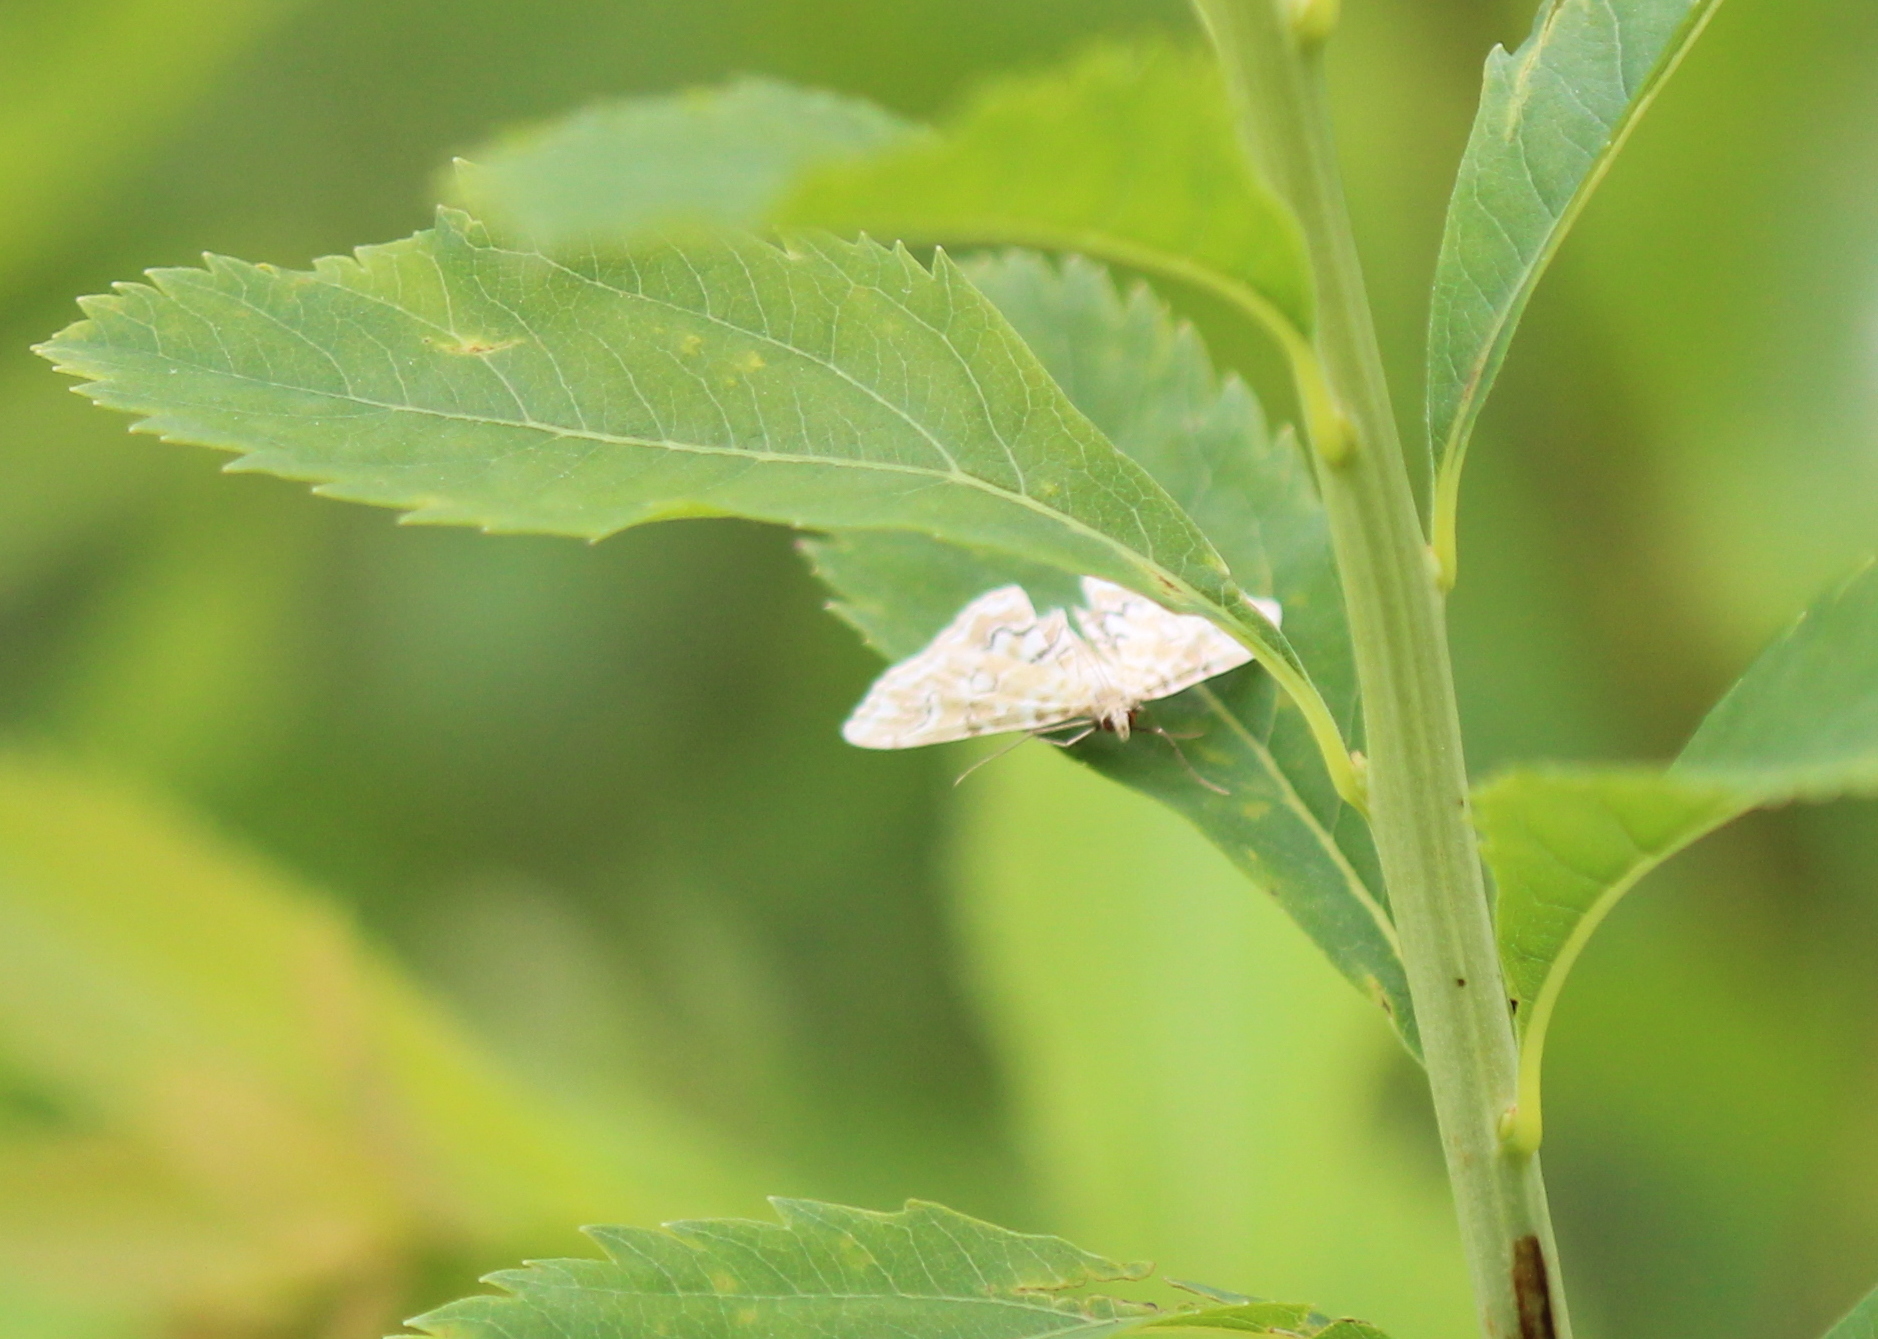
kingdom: Animalia
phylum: Arthropoda
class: Insecta
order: Lepidoptera
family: Crambidae
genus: Elophila
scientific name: Elophila icciusalis
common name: Pondside pyralid moth
